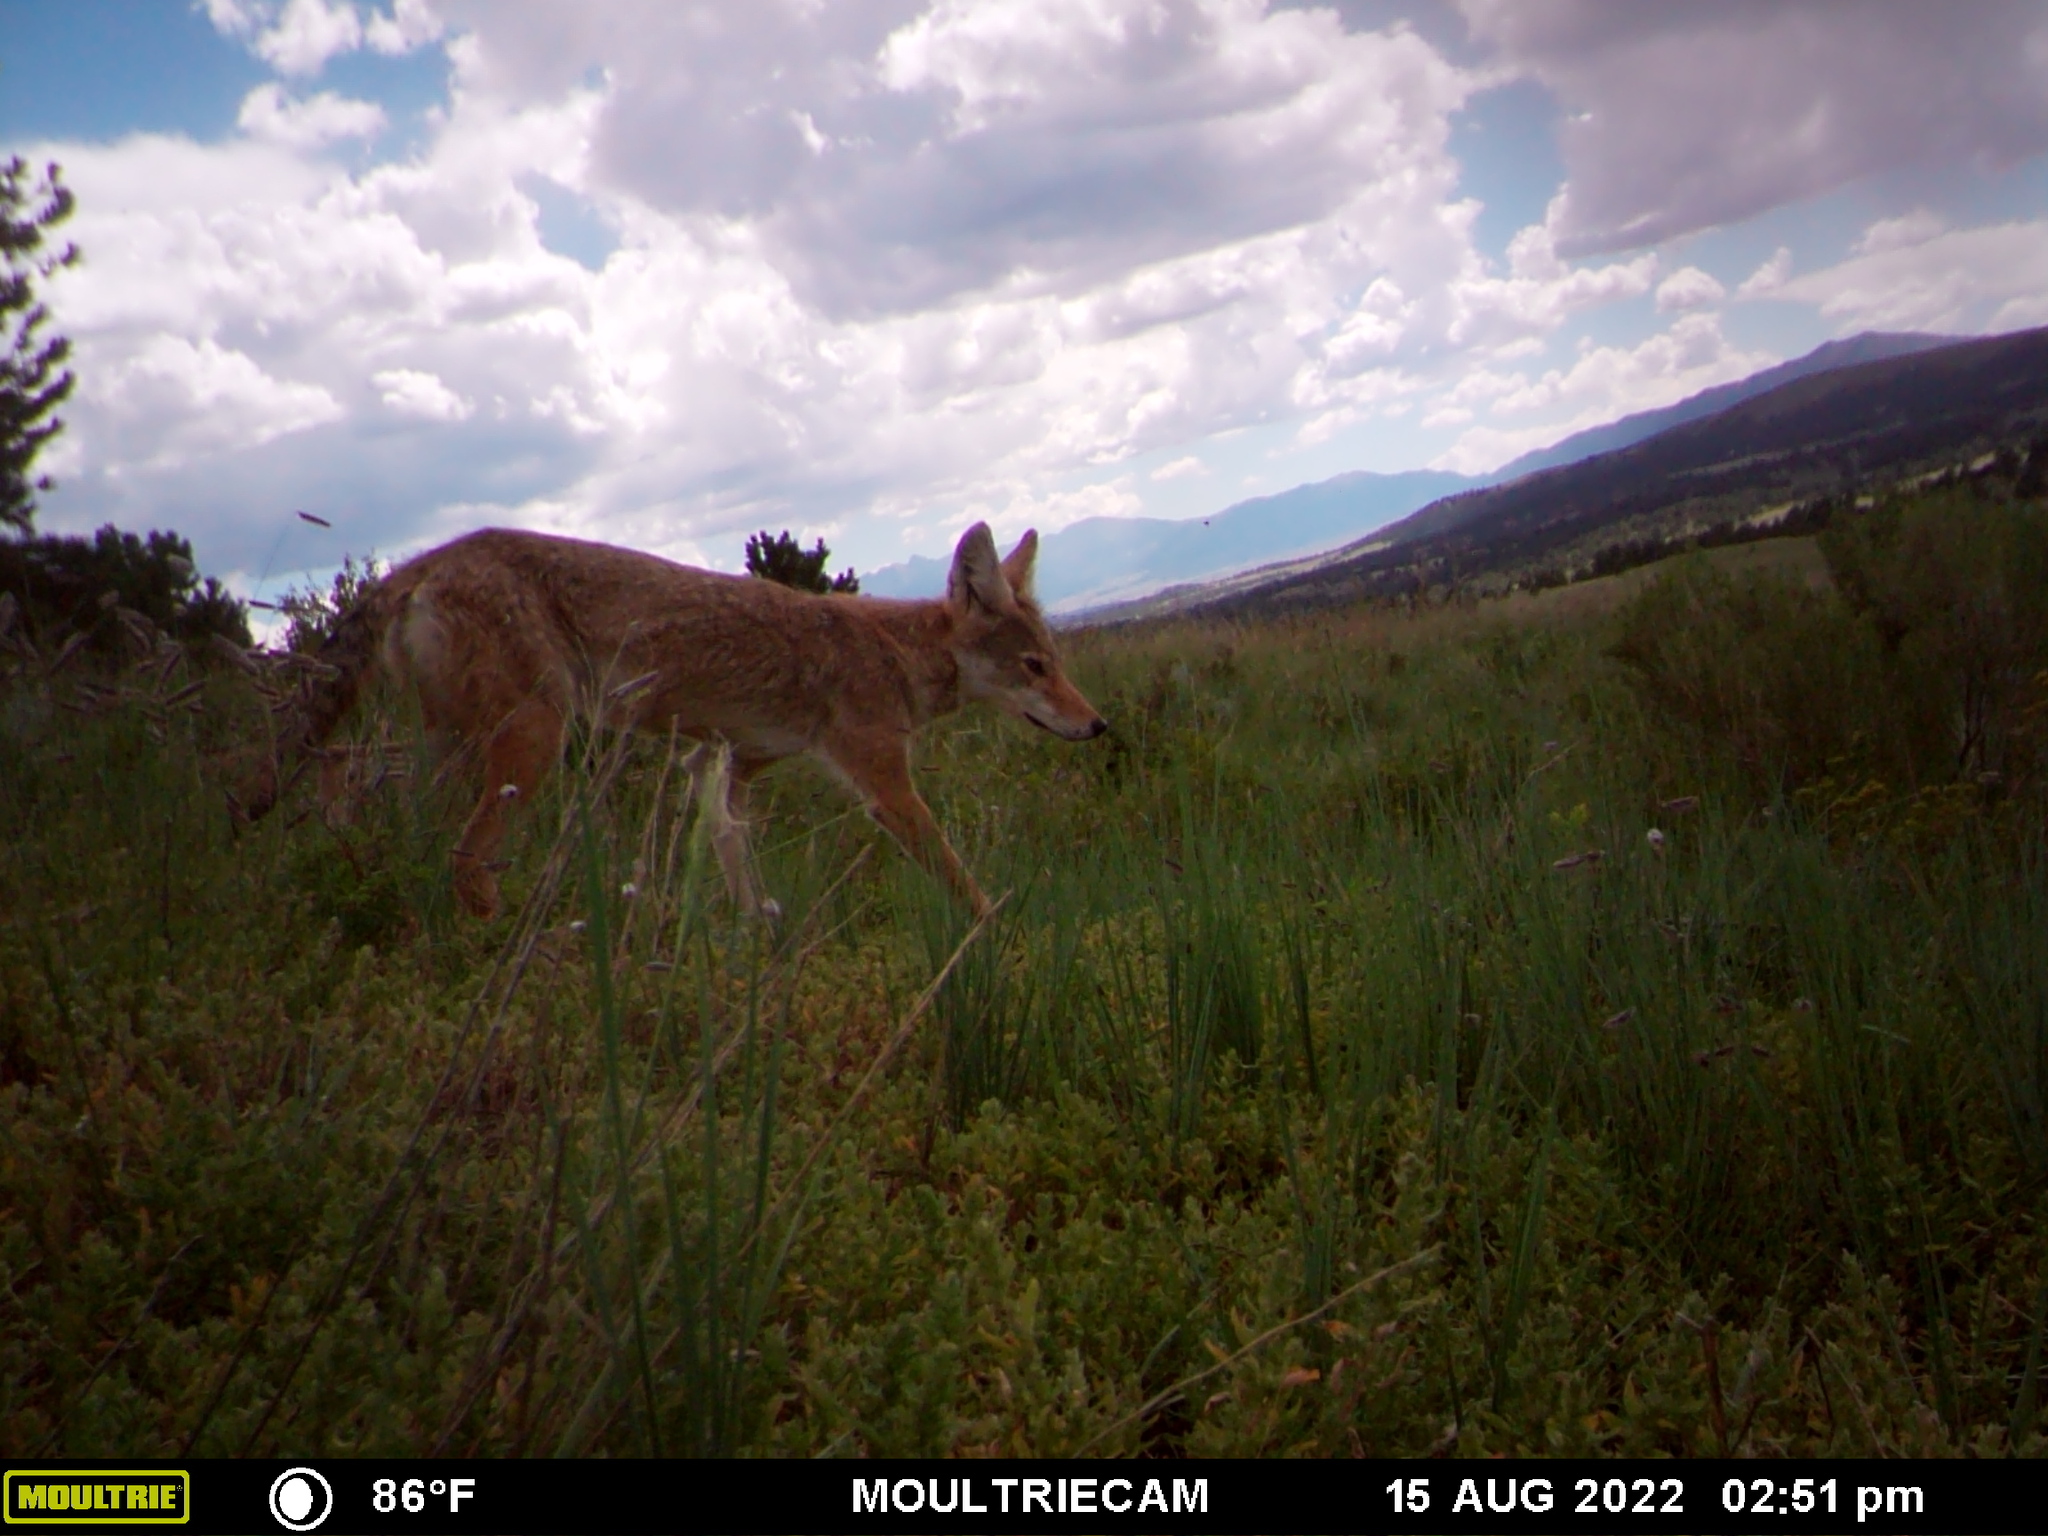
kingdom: Animalia
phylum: Chordata
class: Mammalia
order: Carnivora
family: Canidae
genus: Canis
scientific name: Canis latrans
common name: Coyote
